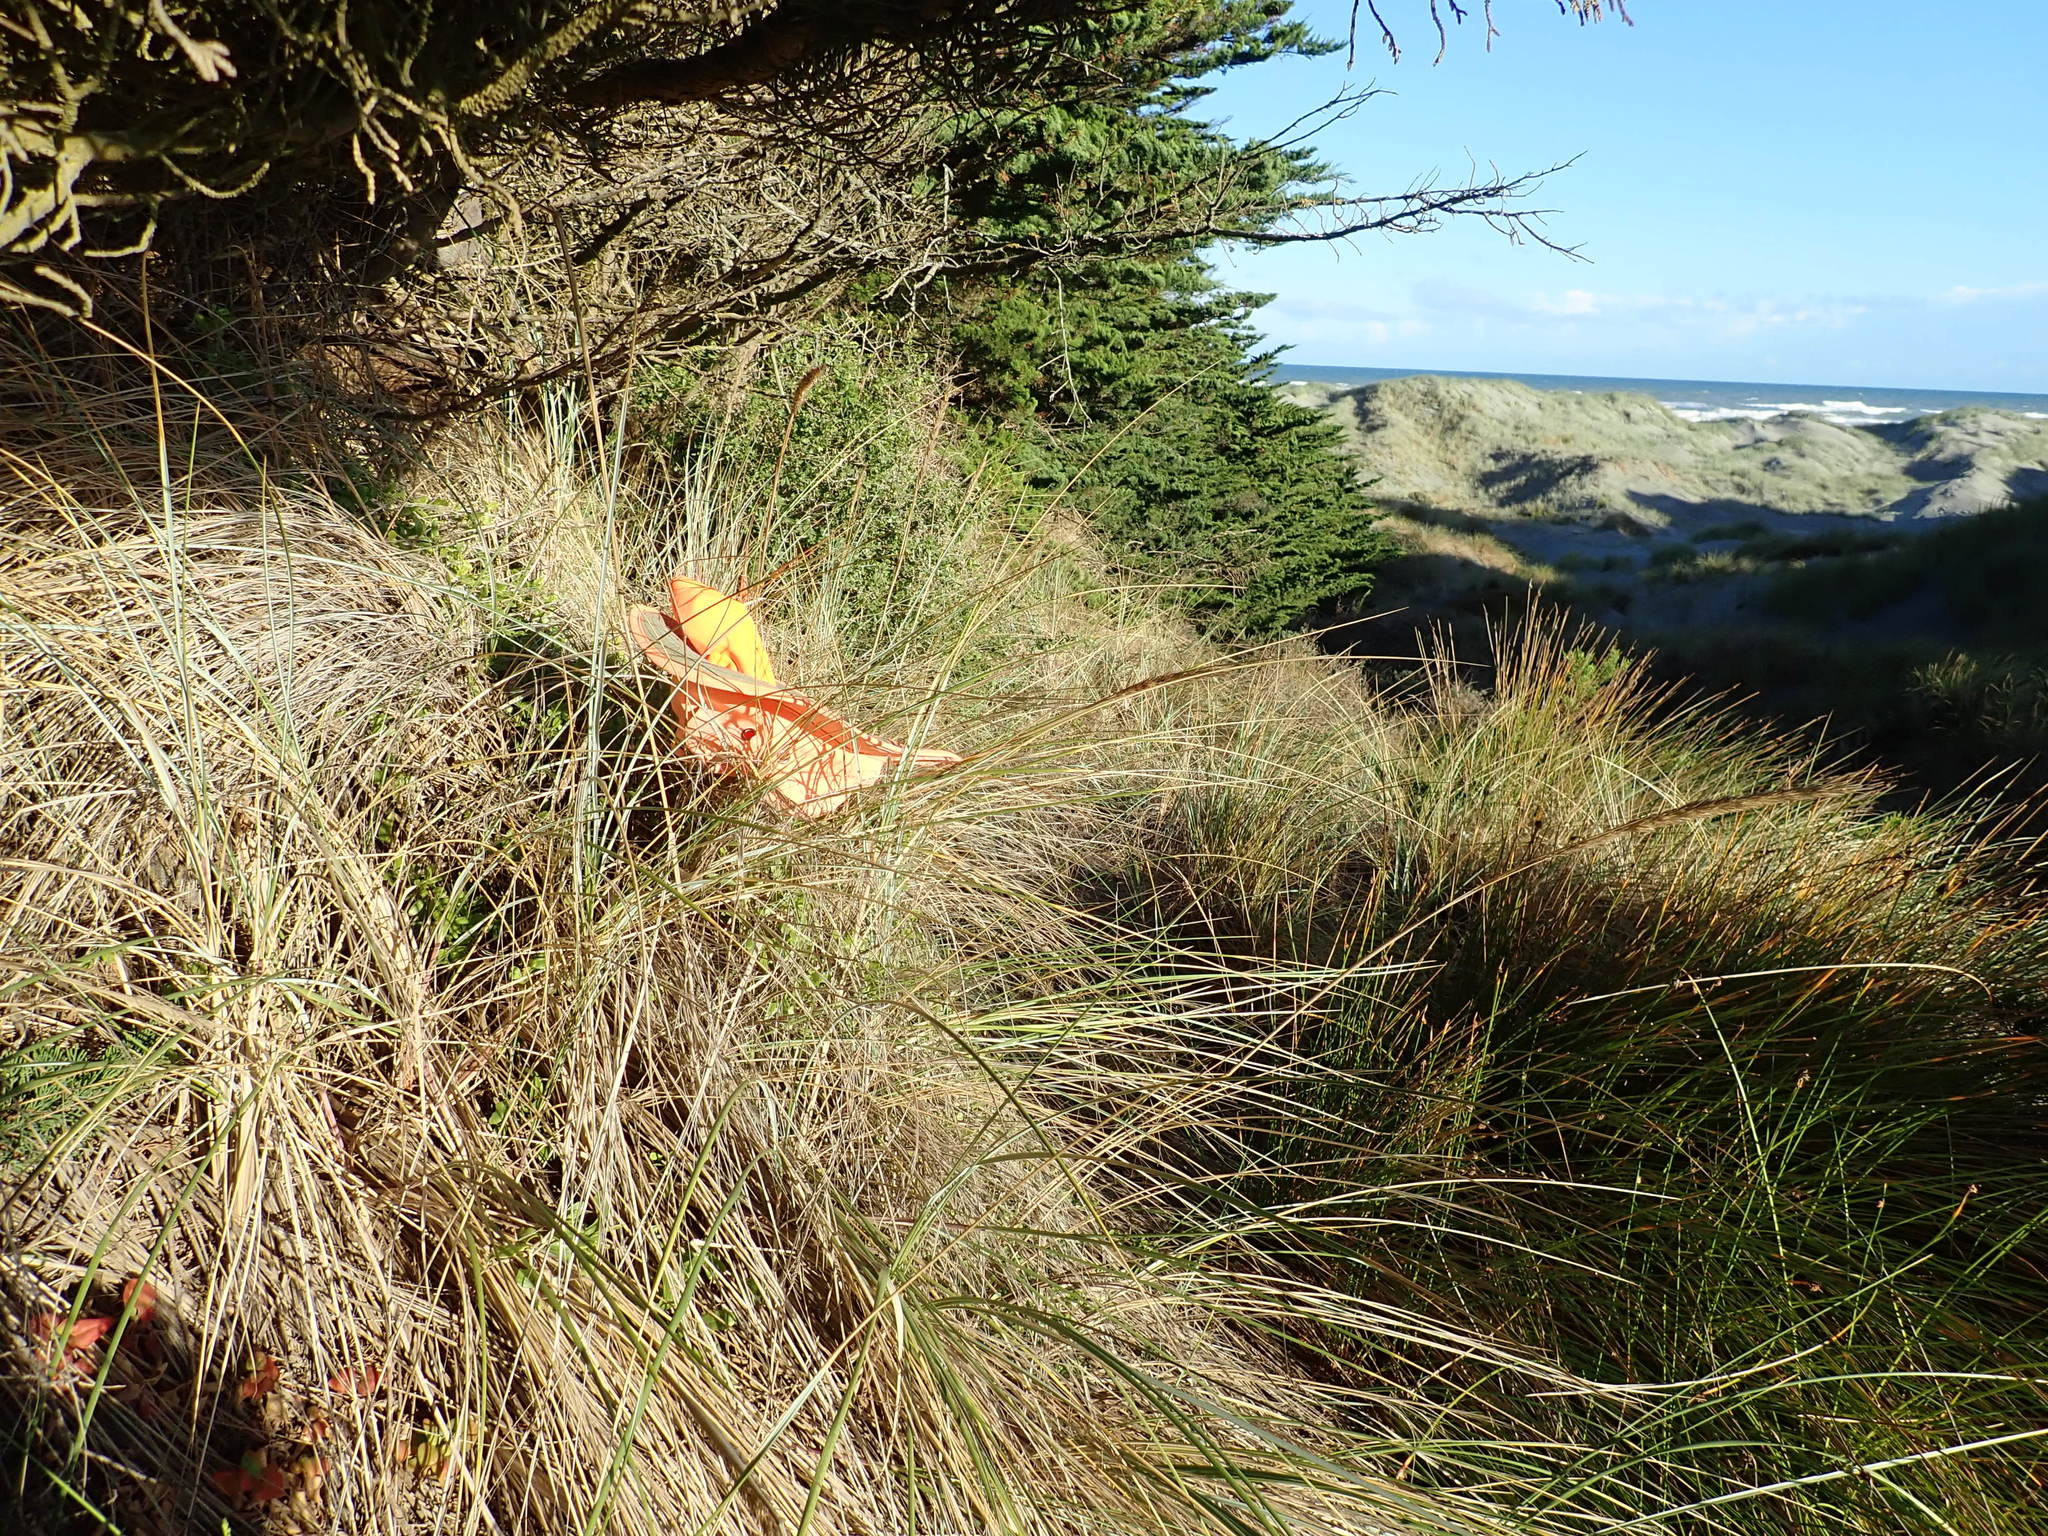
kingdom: Plantae
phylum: Tracheophyta
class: Magnoliopsida
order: Solanales
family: Solanaceae
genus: Lycium
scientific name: Lycium ferocissimum
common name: African boxthorn
